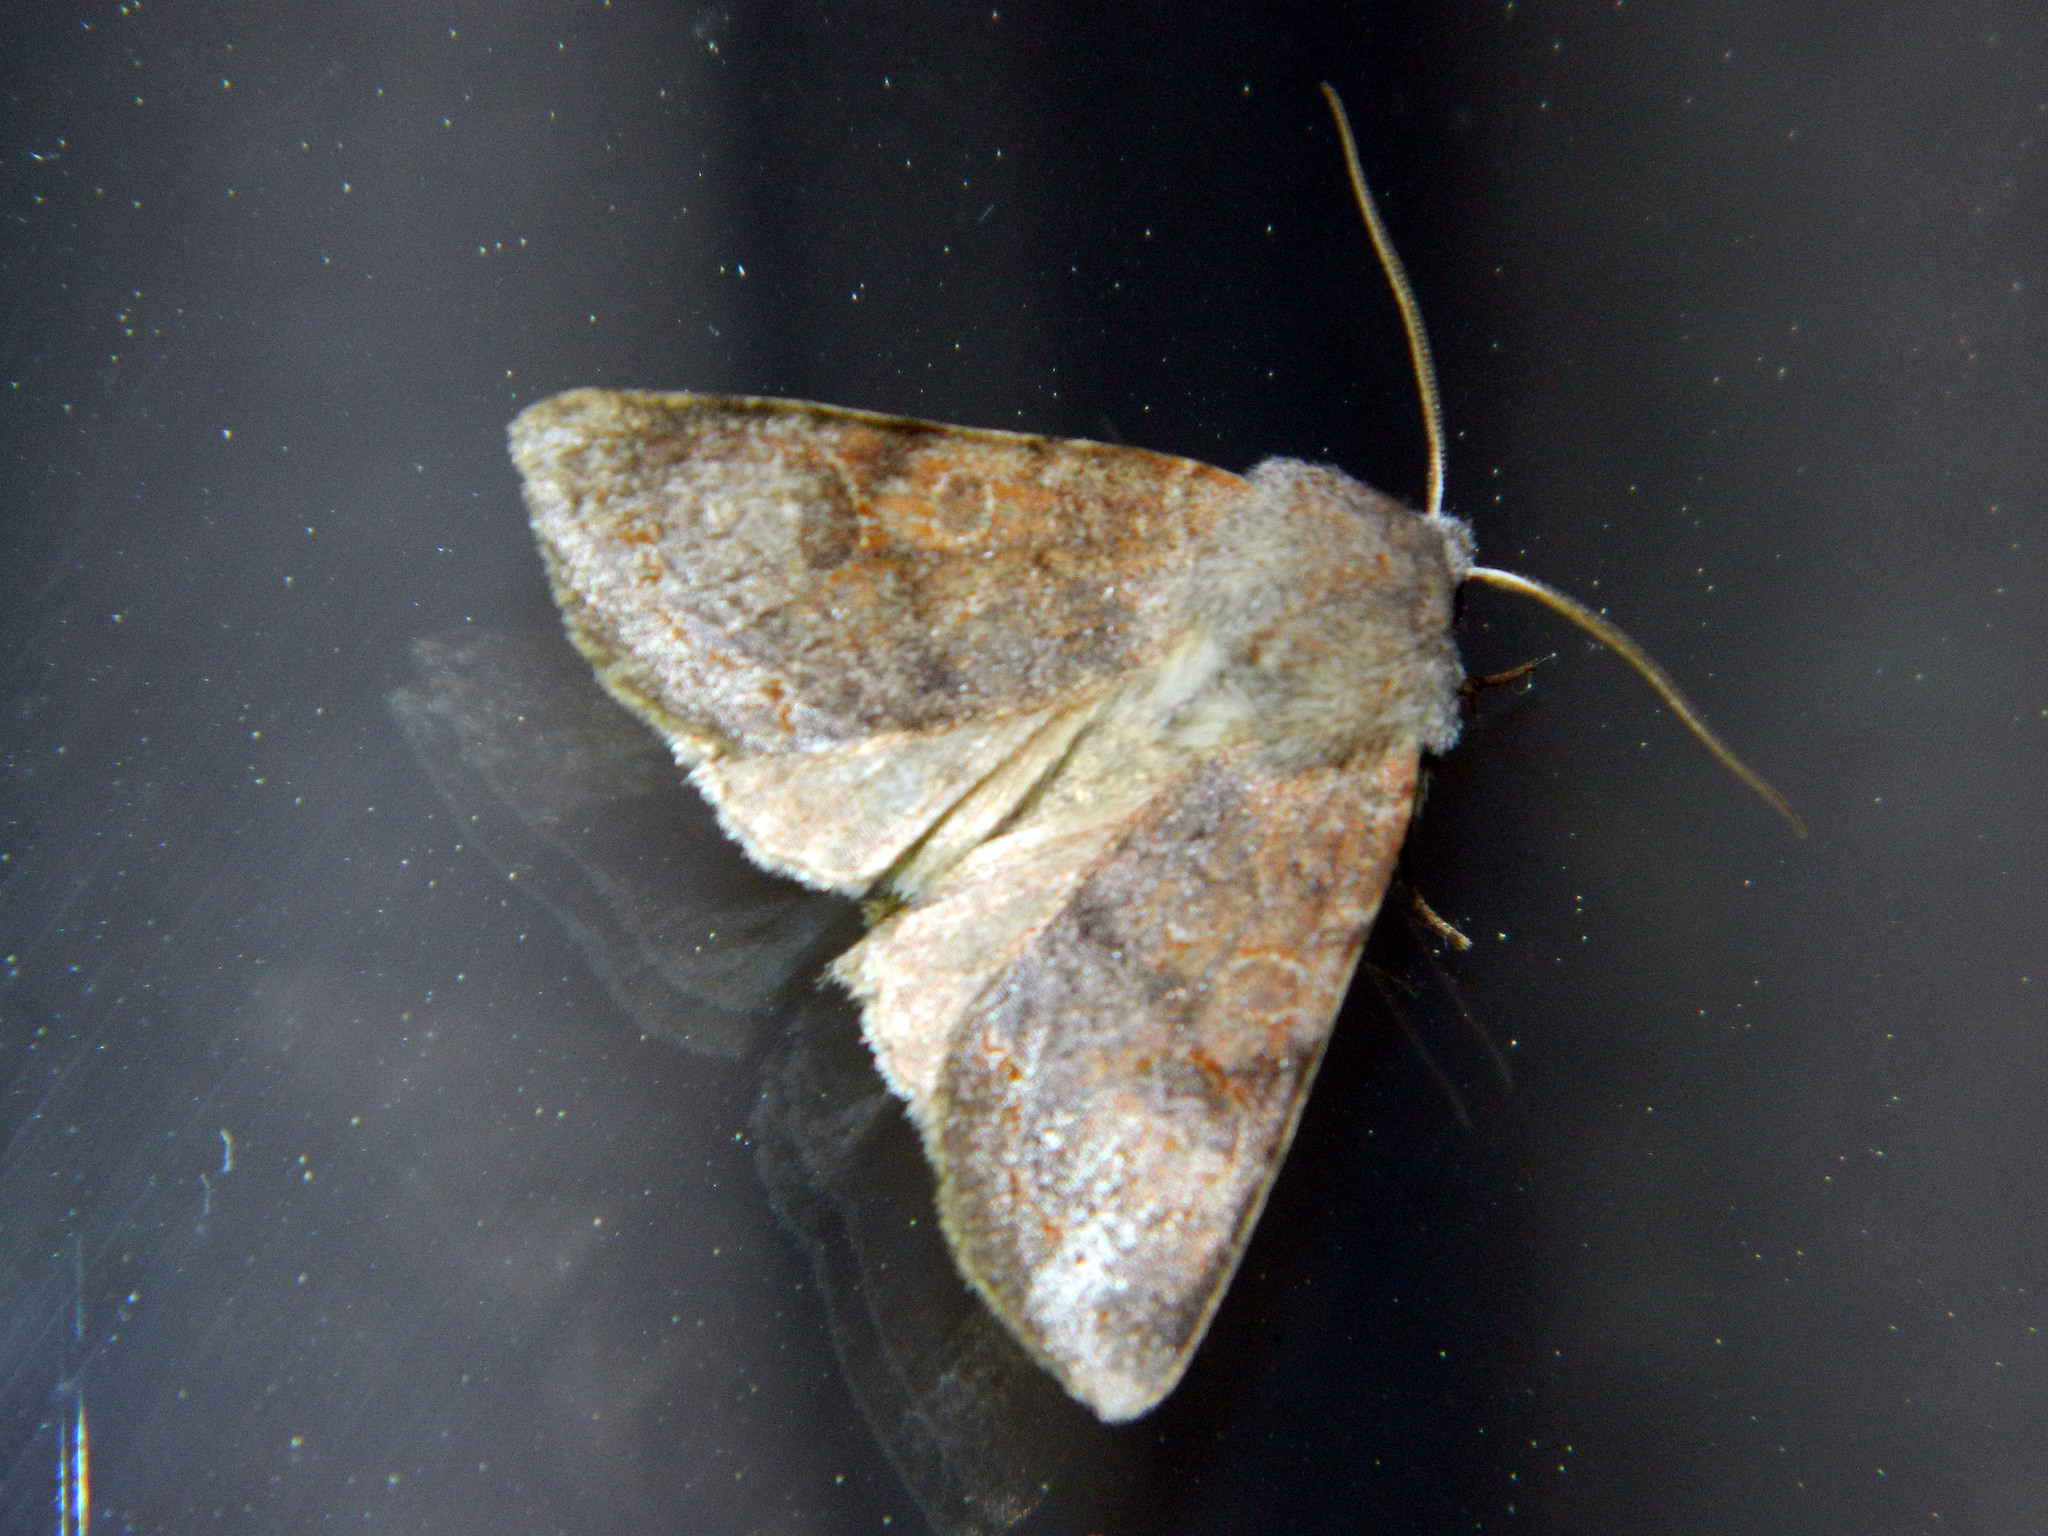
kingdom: Animalia
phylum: Arthropoda
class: Insecta
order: Lepidoptera
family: Noctuidae
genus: Orthosia
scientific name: Orthosia hibisci
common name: Green fruitworm
